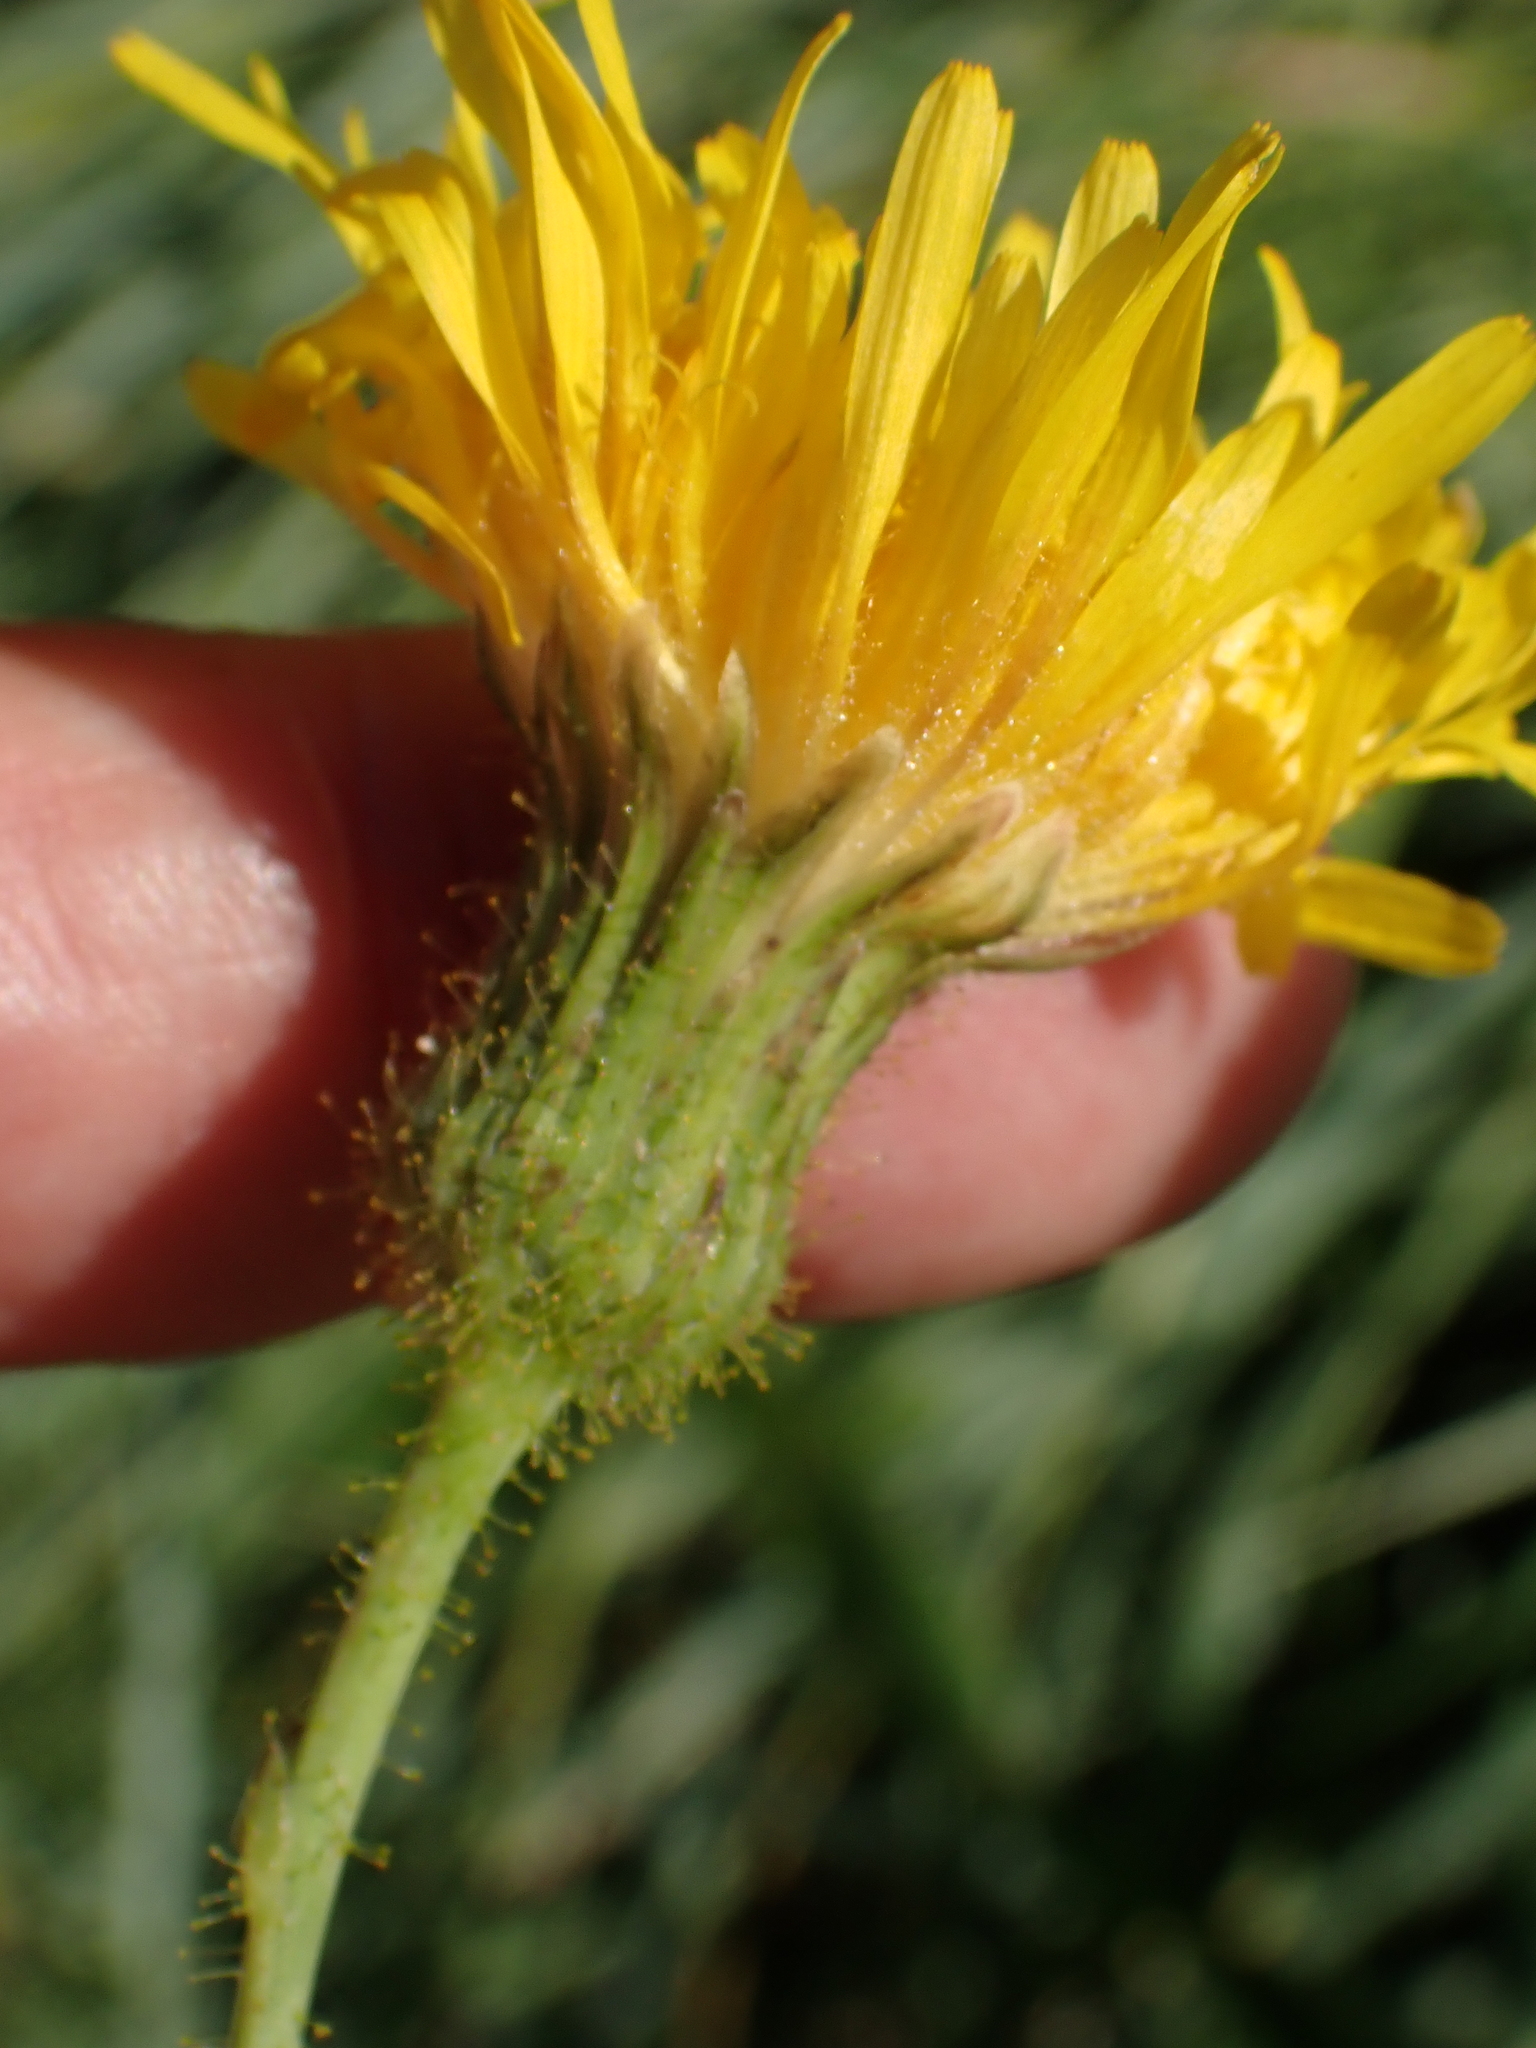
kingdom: Plantae
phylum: Tracheophyta
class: Magnoliopsida
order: Asterales
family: Asteraceae
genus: Sonchus
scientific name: Sonchus arvensis
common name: Perennial sow-thistle
